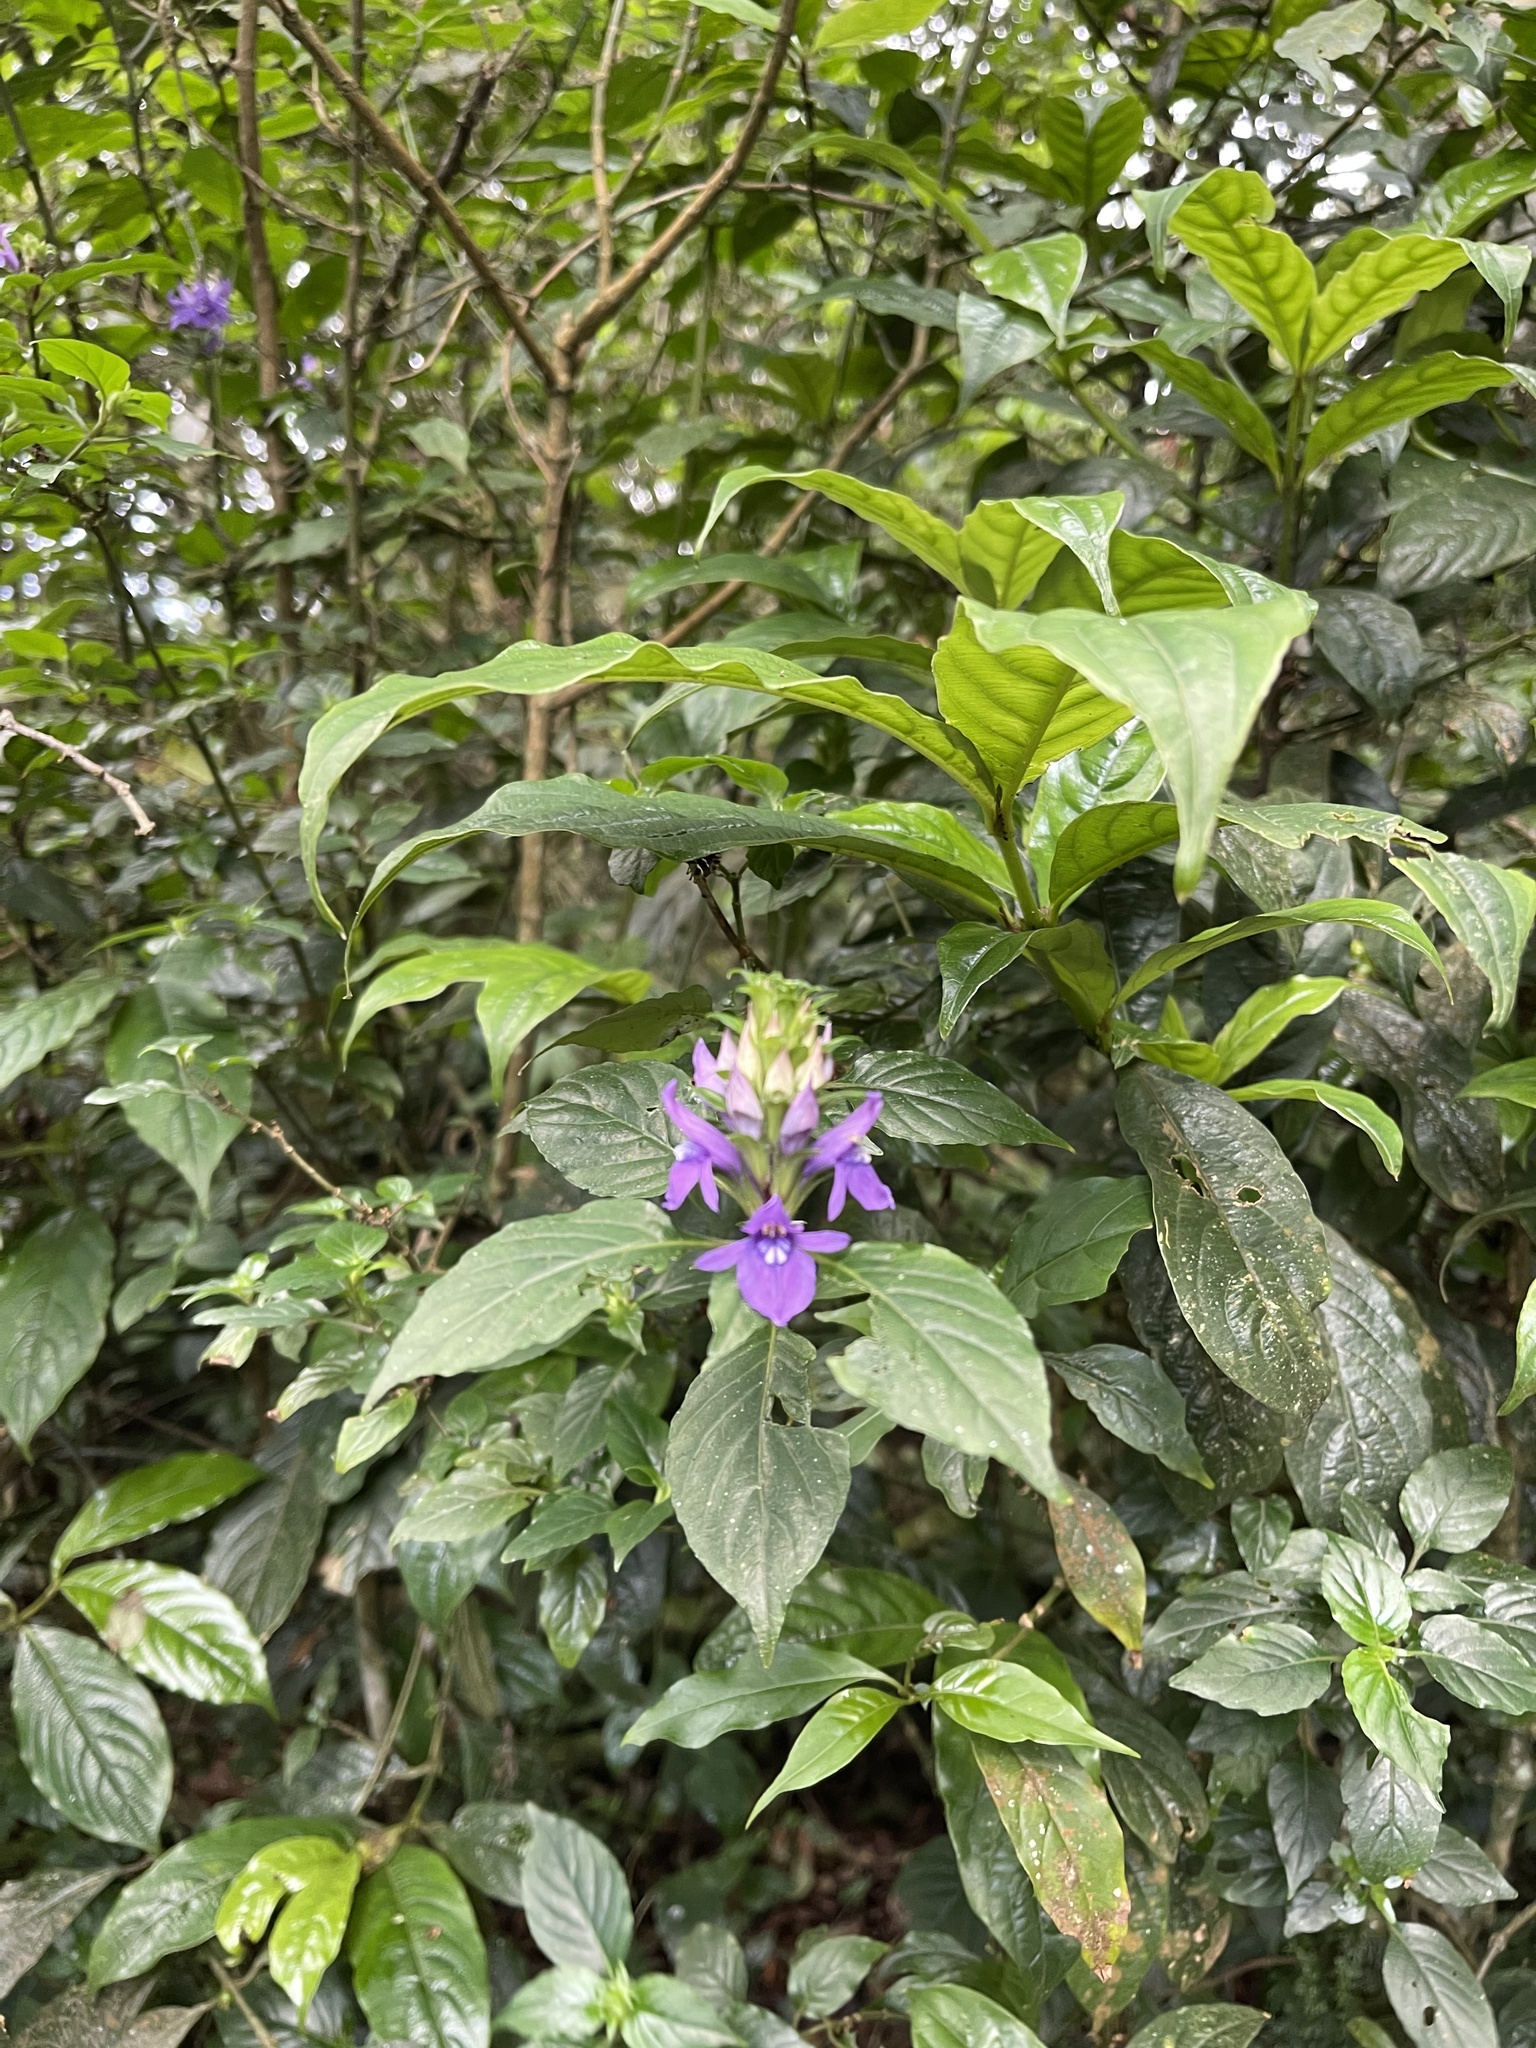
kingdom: Plantae
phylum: Tracheophyta
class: Magnoliopsida
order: Lamiales
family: Acanthaceae
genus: Anisosepalum
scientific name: Anisosepalum humbertii
